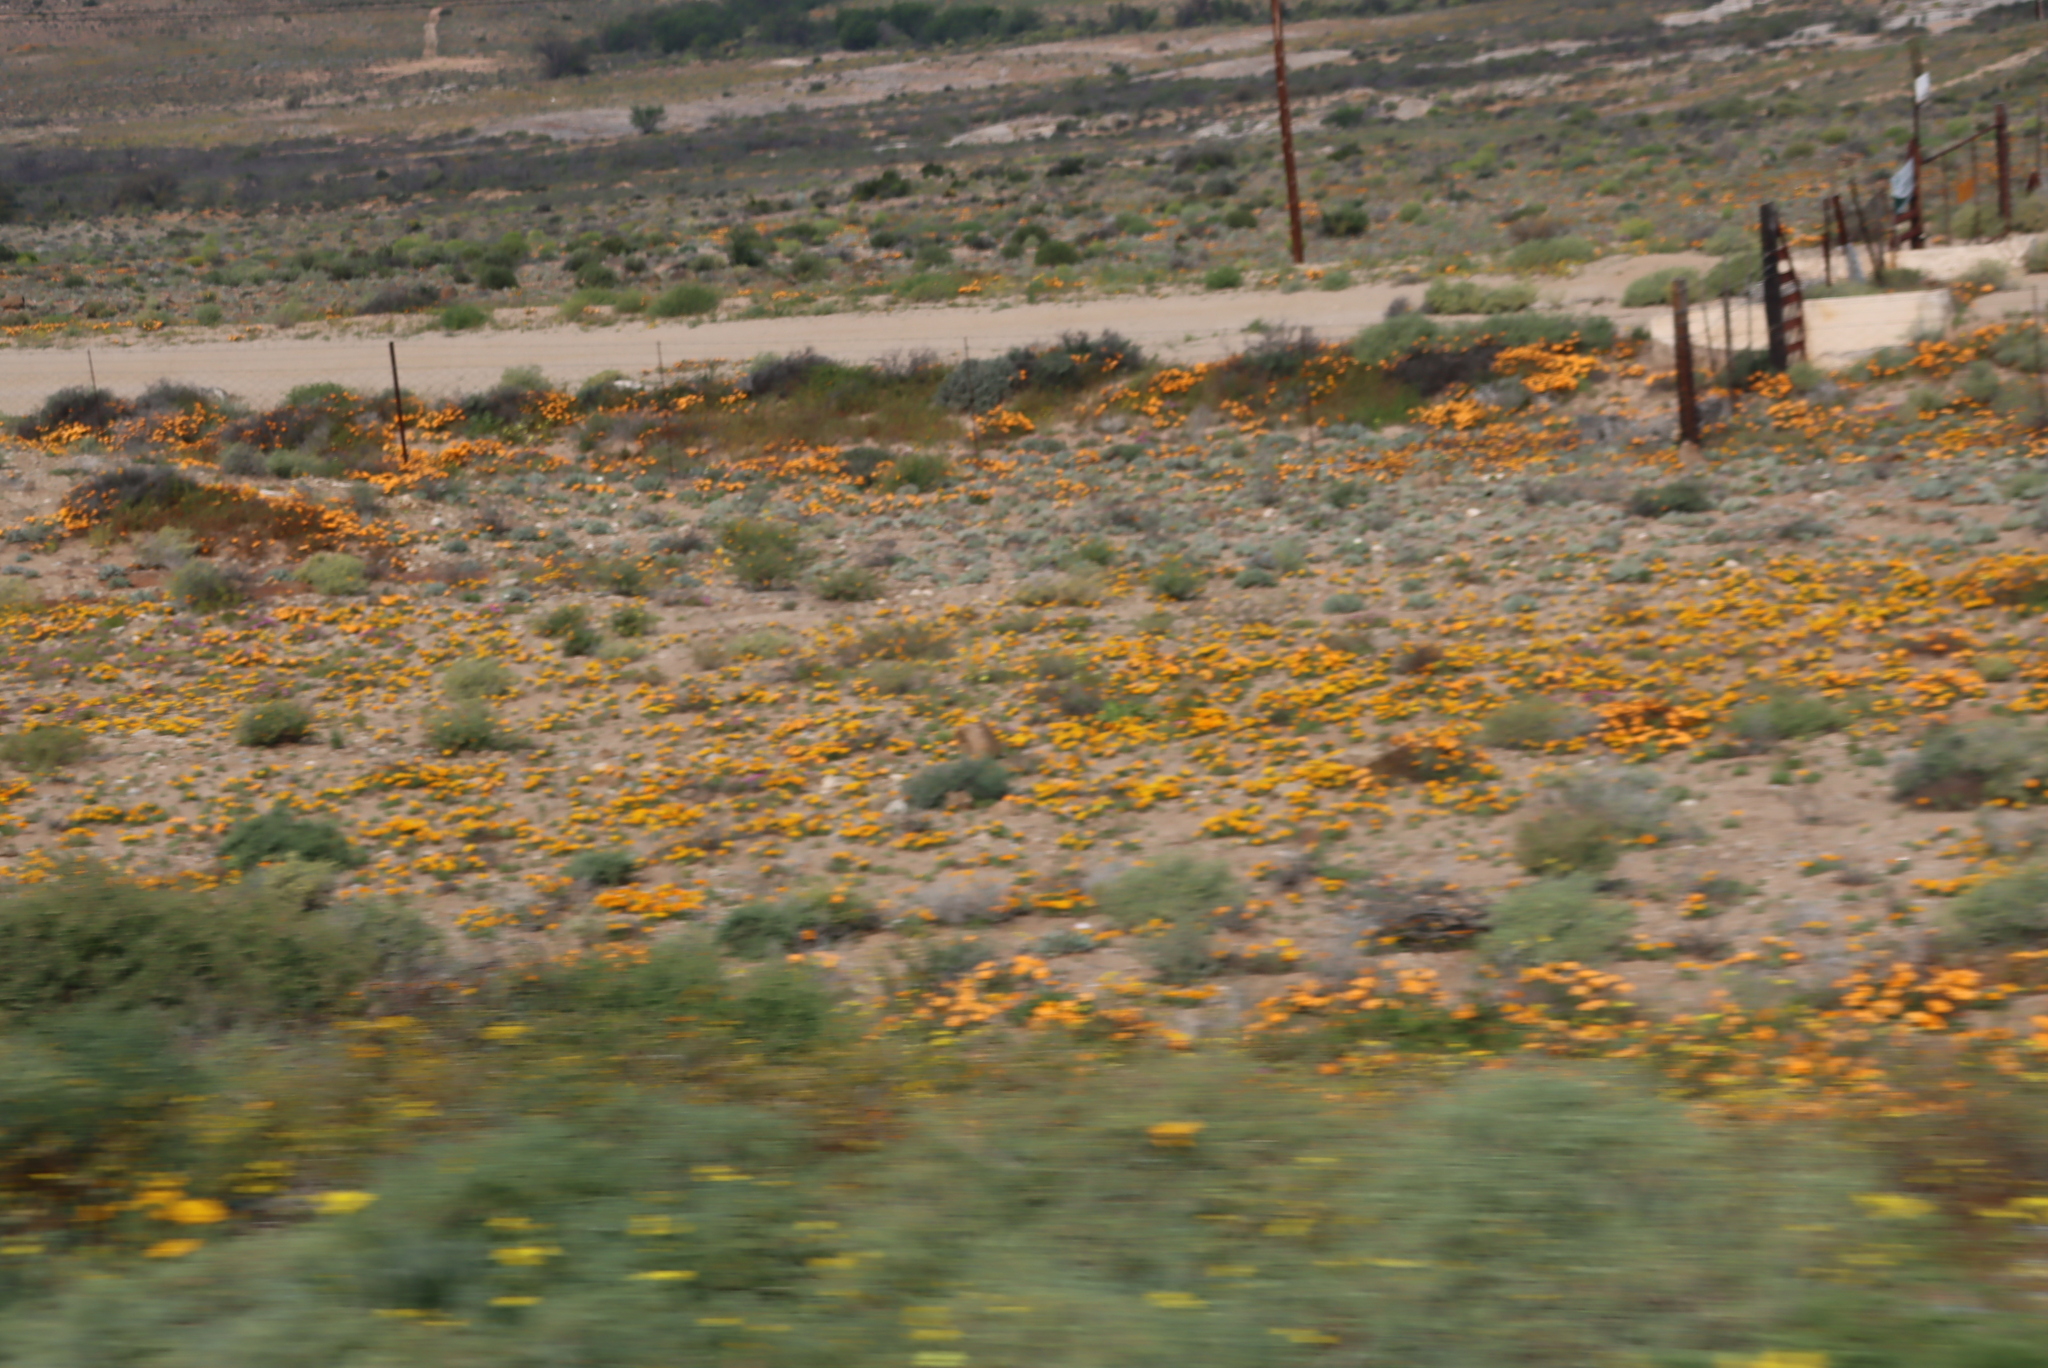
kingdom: Plantae
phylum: Tracheophyta
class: Magnoliopsida
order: Asterales
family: Asteraceae
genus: Dimorphotheca
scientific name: Dimorphotheca sinuata
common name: Glandular cape marigold
